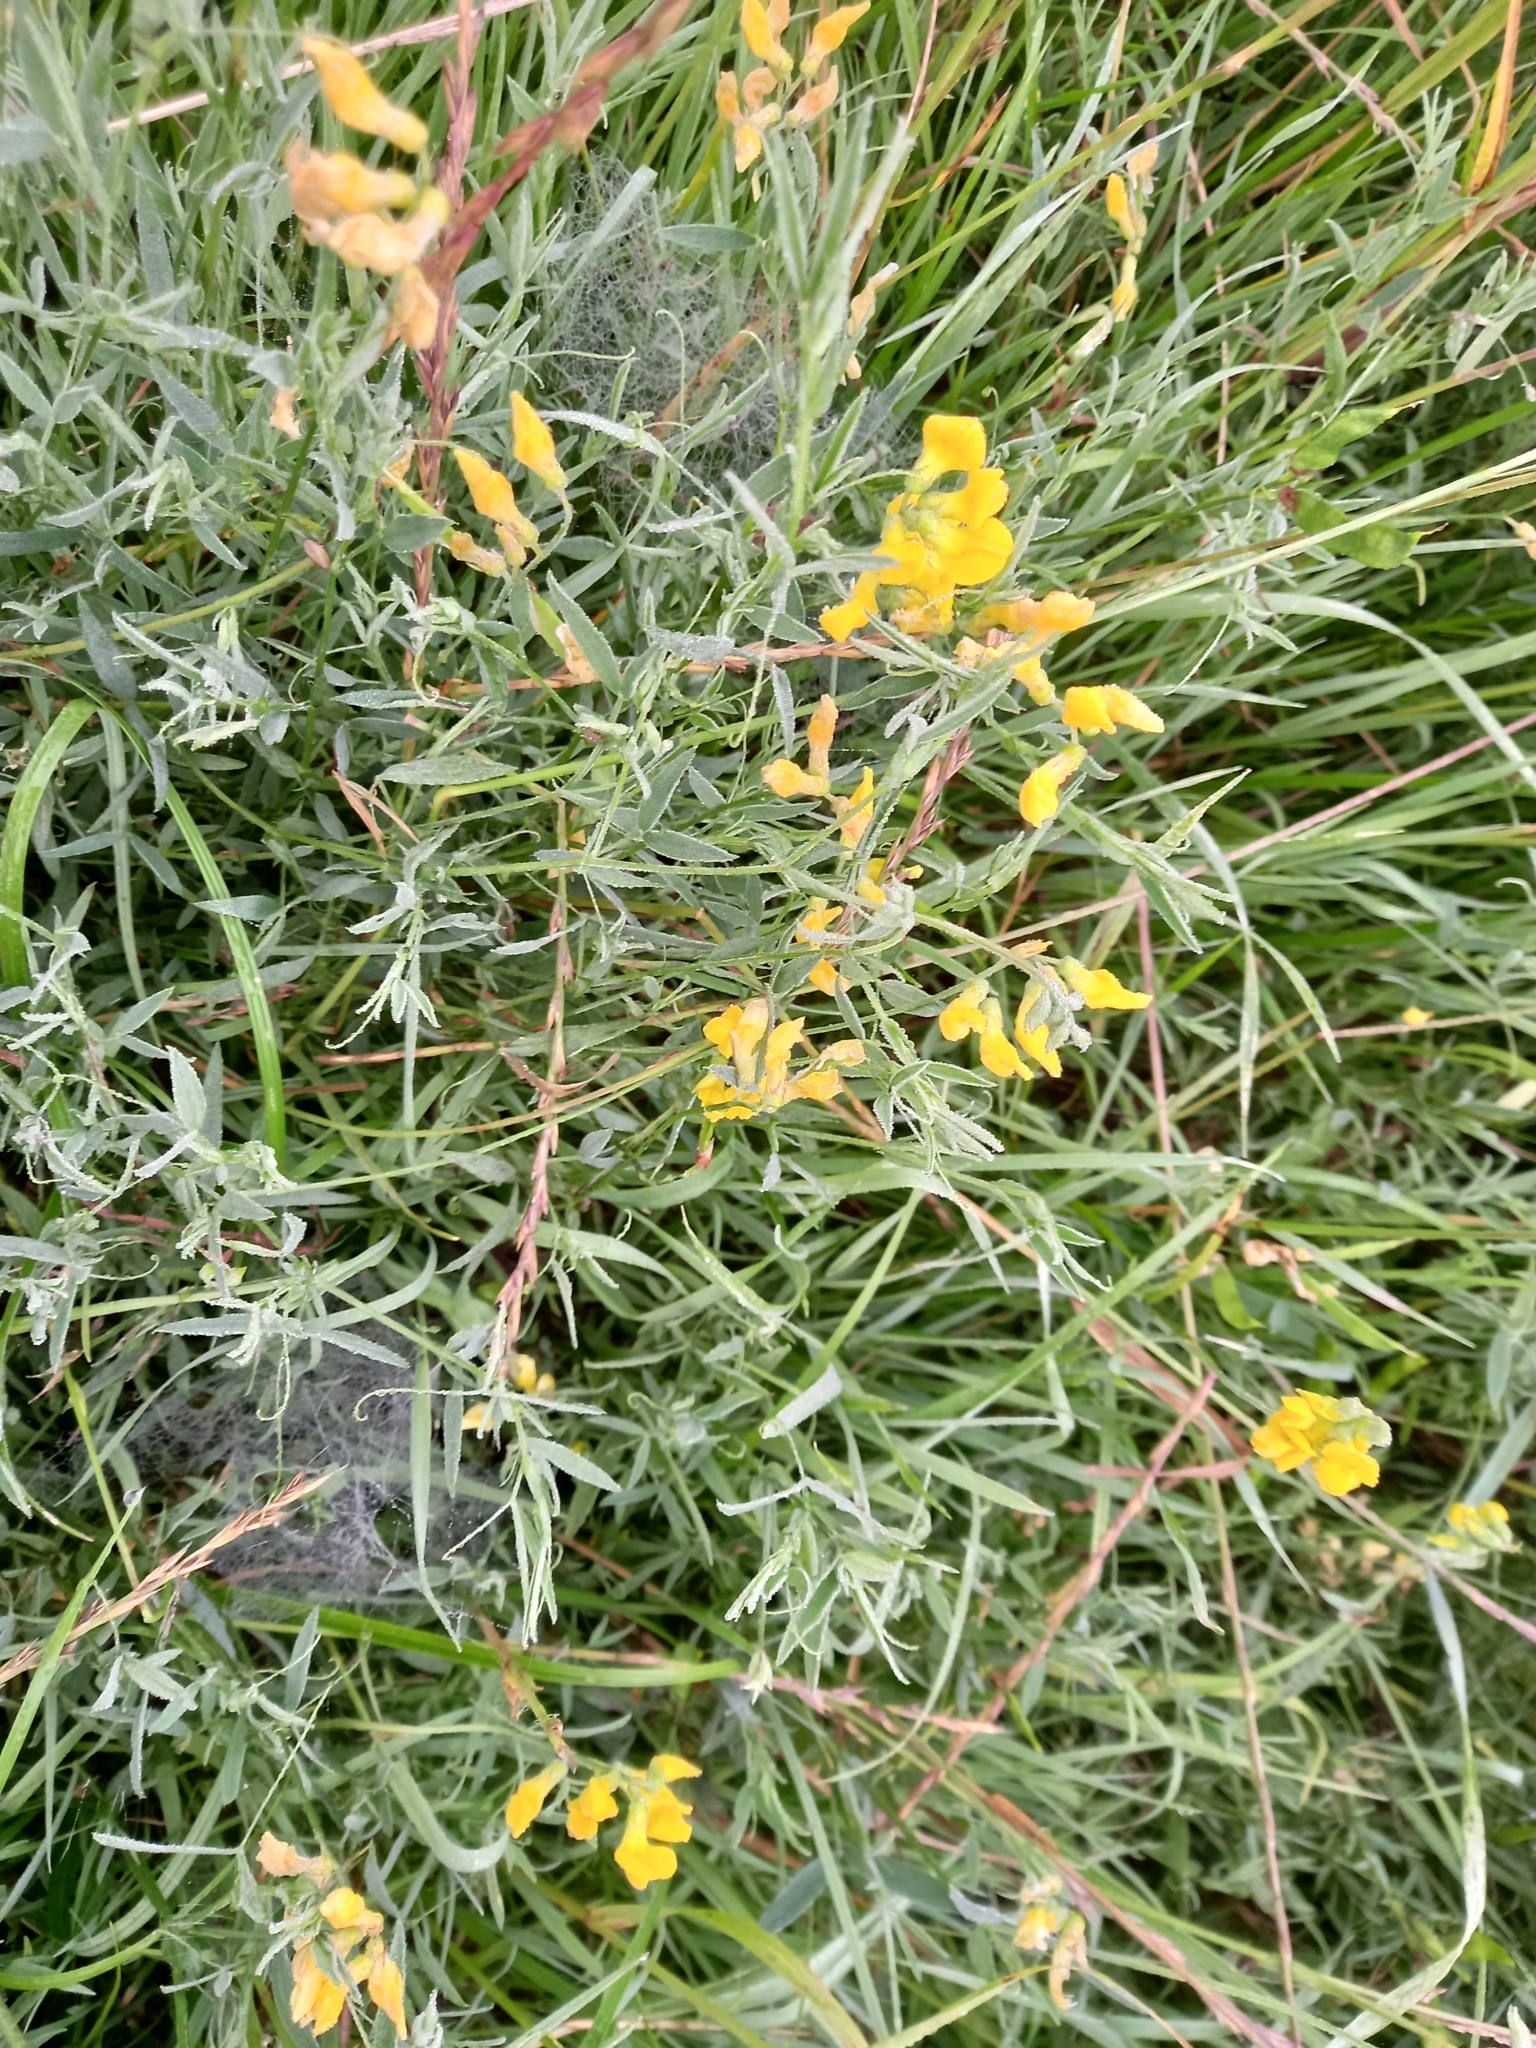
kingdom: Plantae
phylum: Tracheophyta
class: Magnoliopsida
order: Fabales
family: Fabaceae
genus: Lathyrus
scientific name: Lathyrus pratensis
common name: Meadow vetchling
